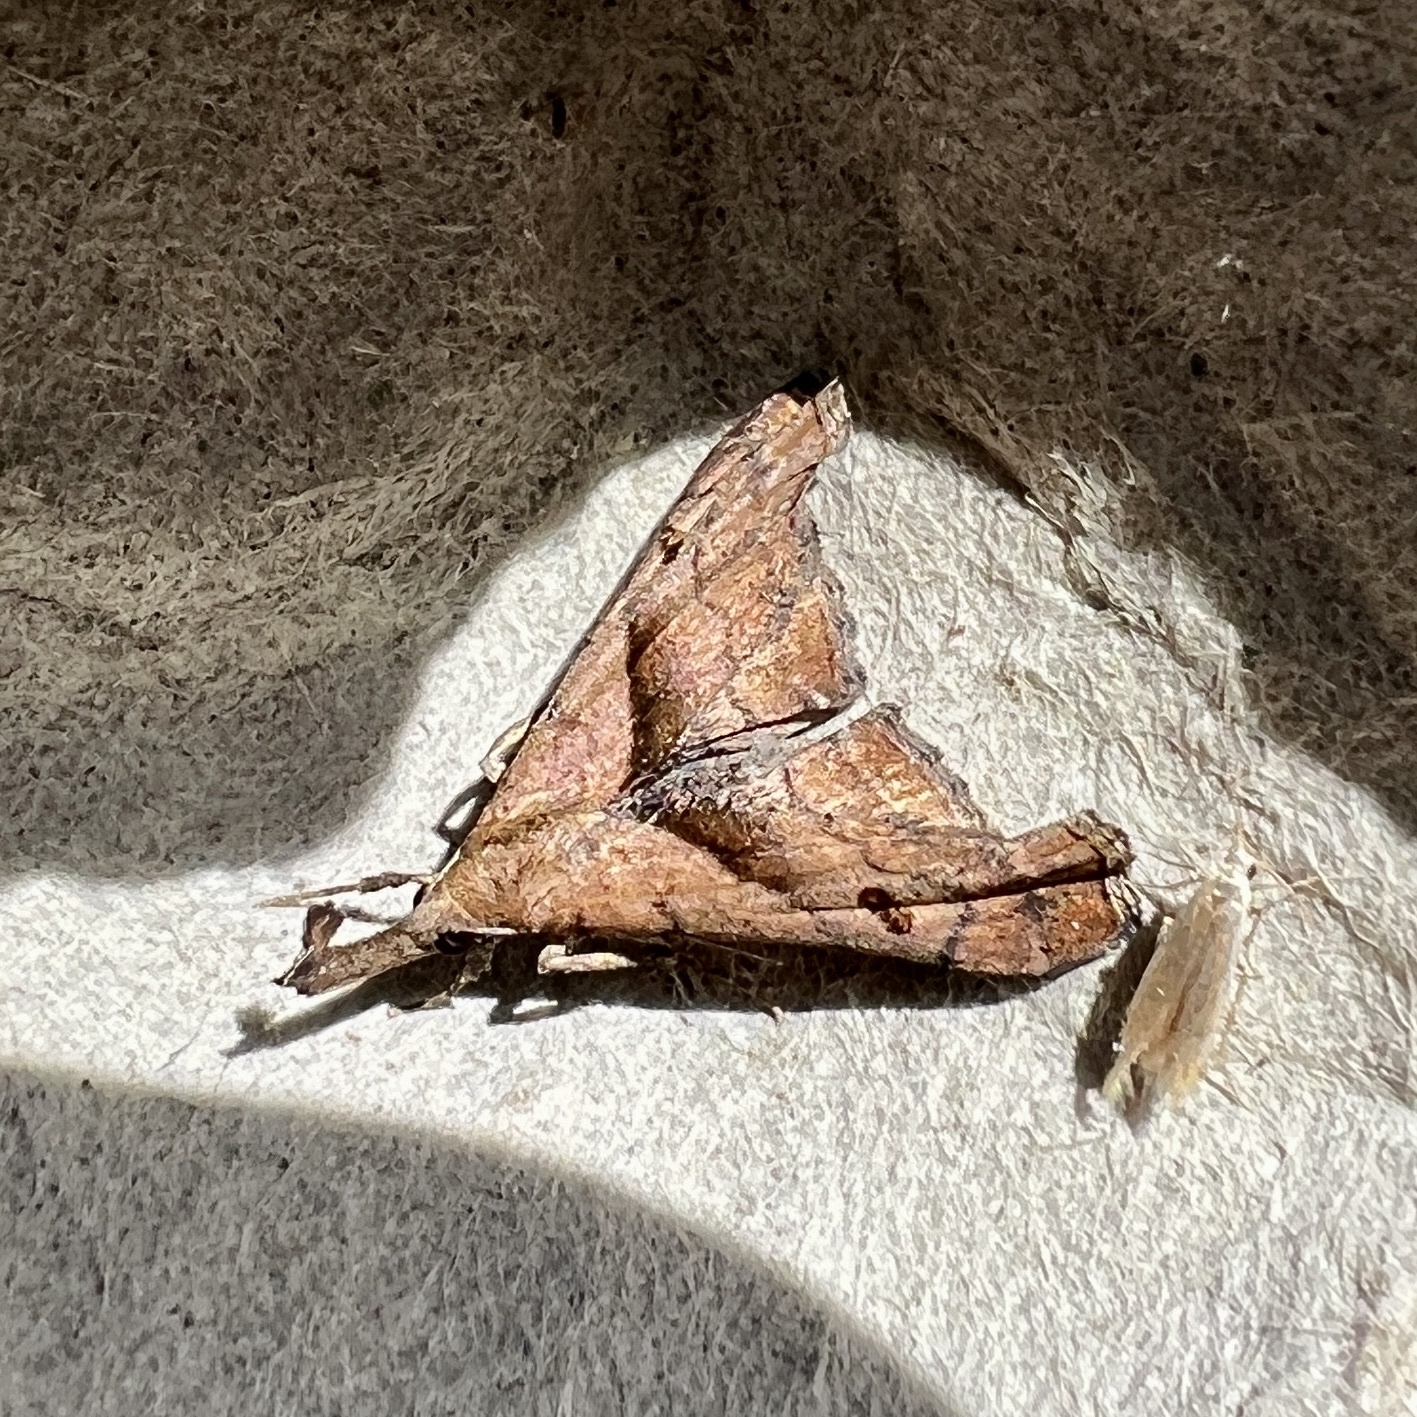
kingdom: Animalia
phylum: Arthropoda
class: Insecta
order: Lepidoptera
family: Erebidae
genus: Palthis
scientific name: Palthis angulalis
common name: Dark-spotted palthis moth
